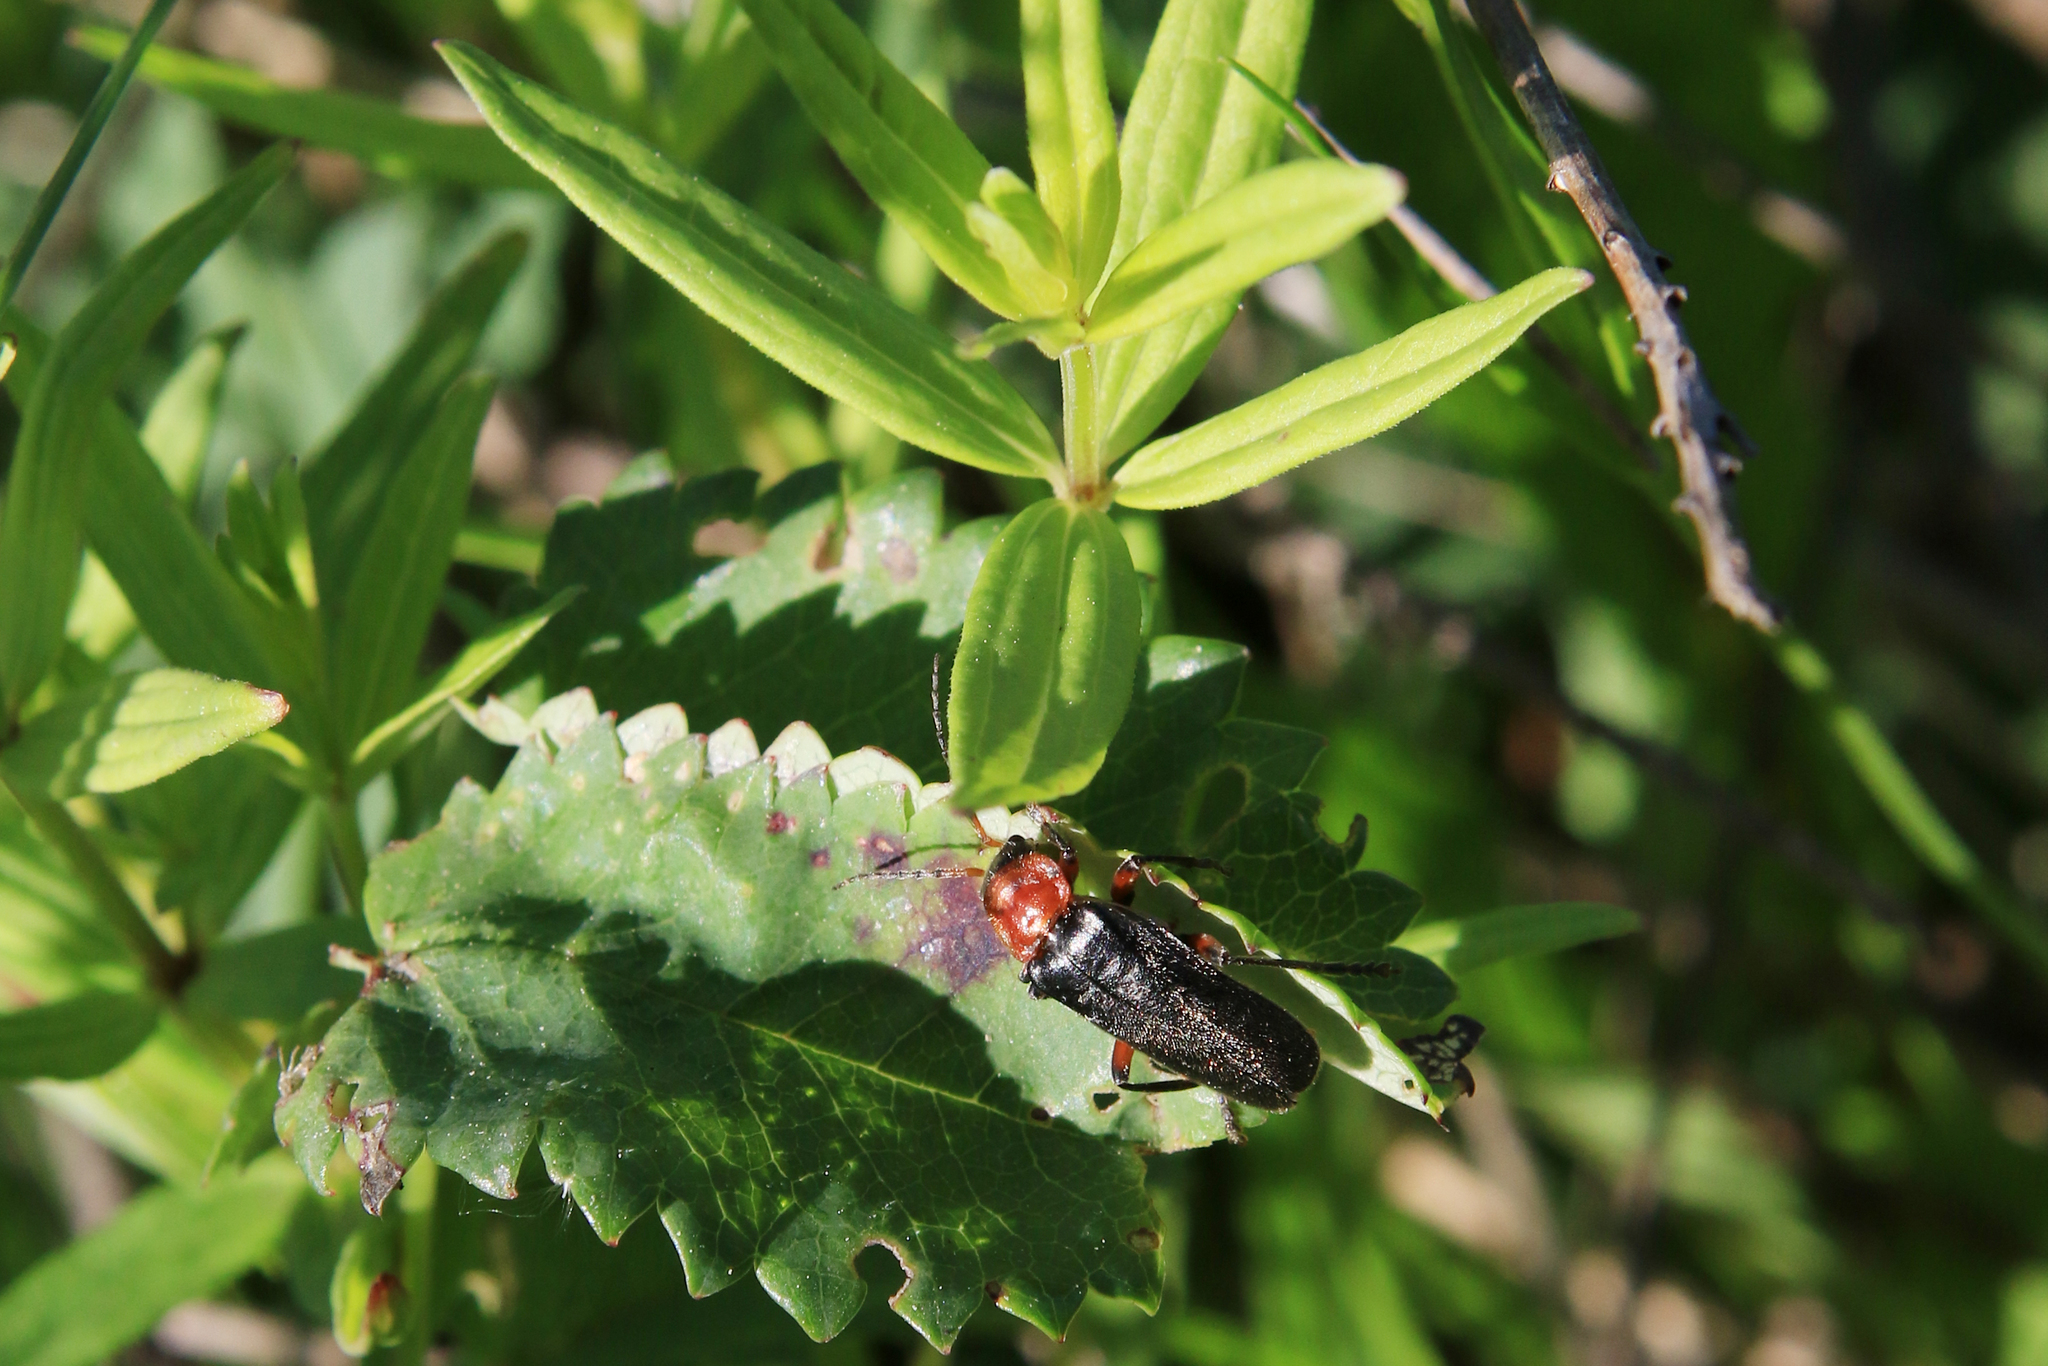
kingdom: Animalia
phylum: Arthropoda
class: Insecta
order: Coleoptera
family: Cantharidae
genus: Cantharis
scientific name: Cantharis rustica
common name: Soldier beetle
